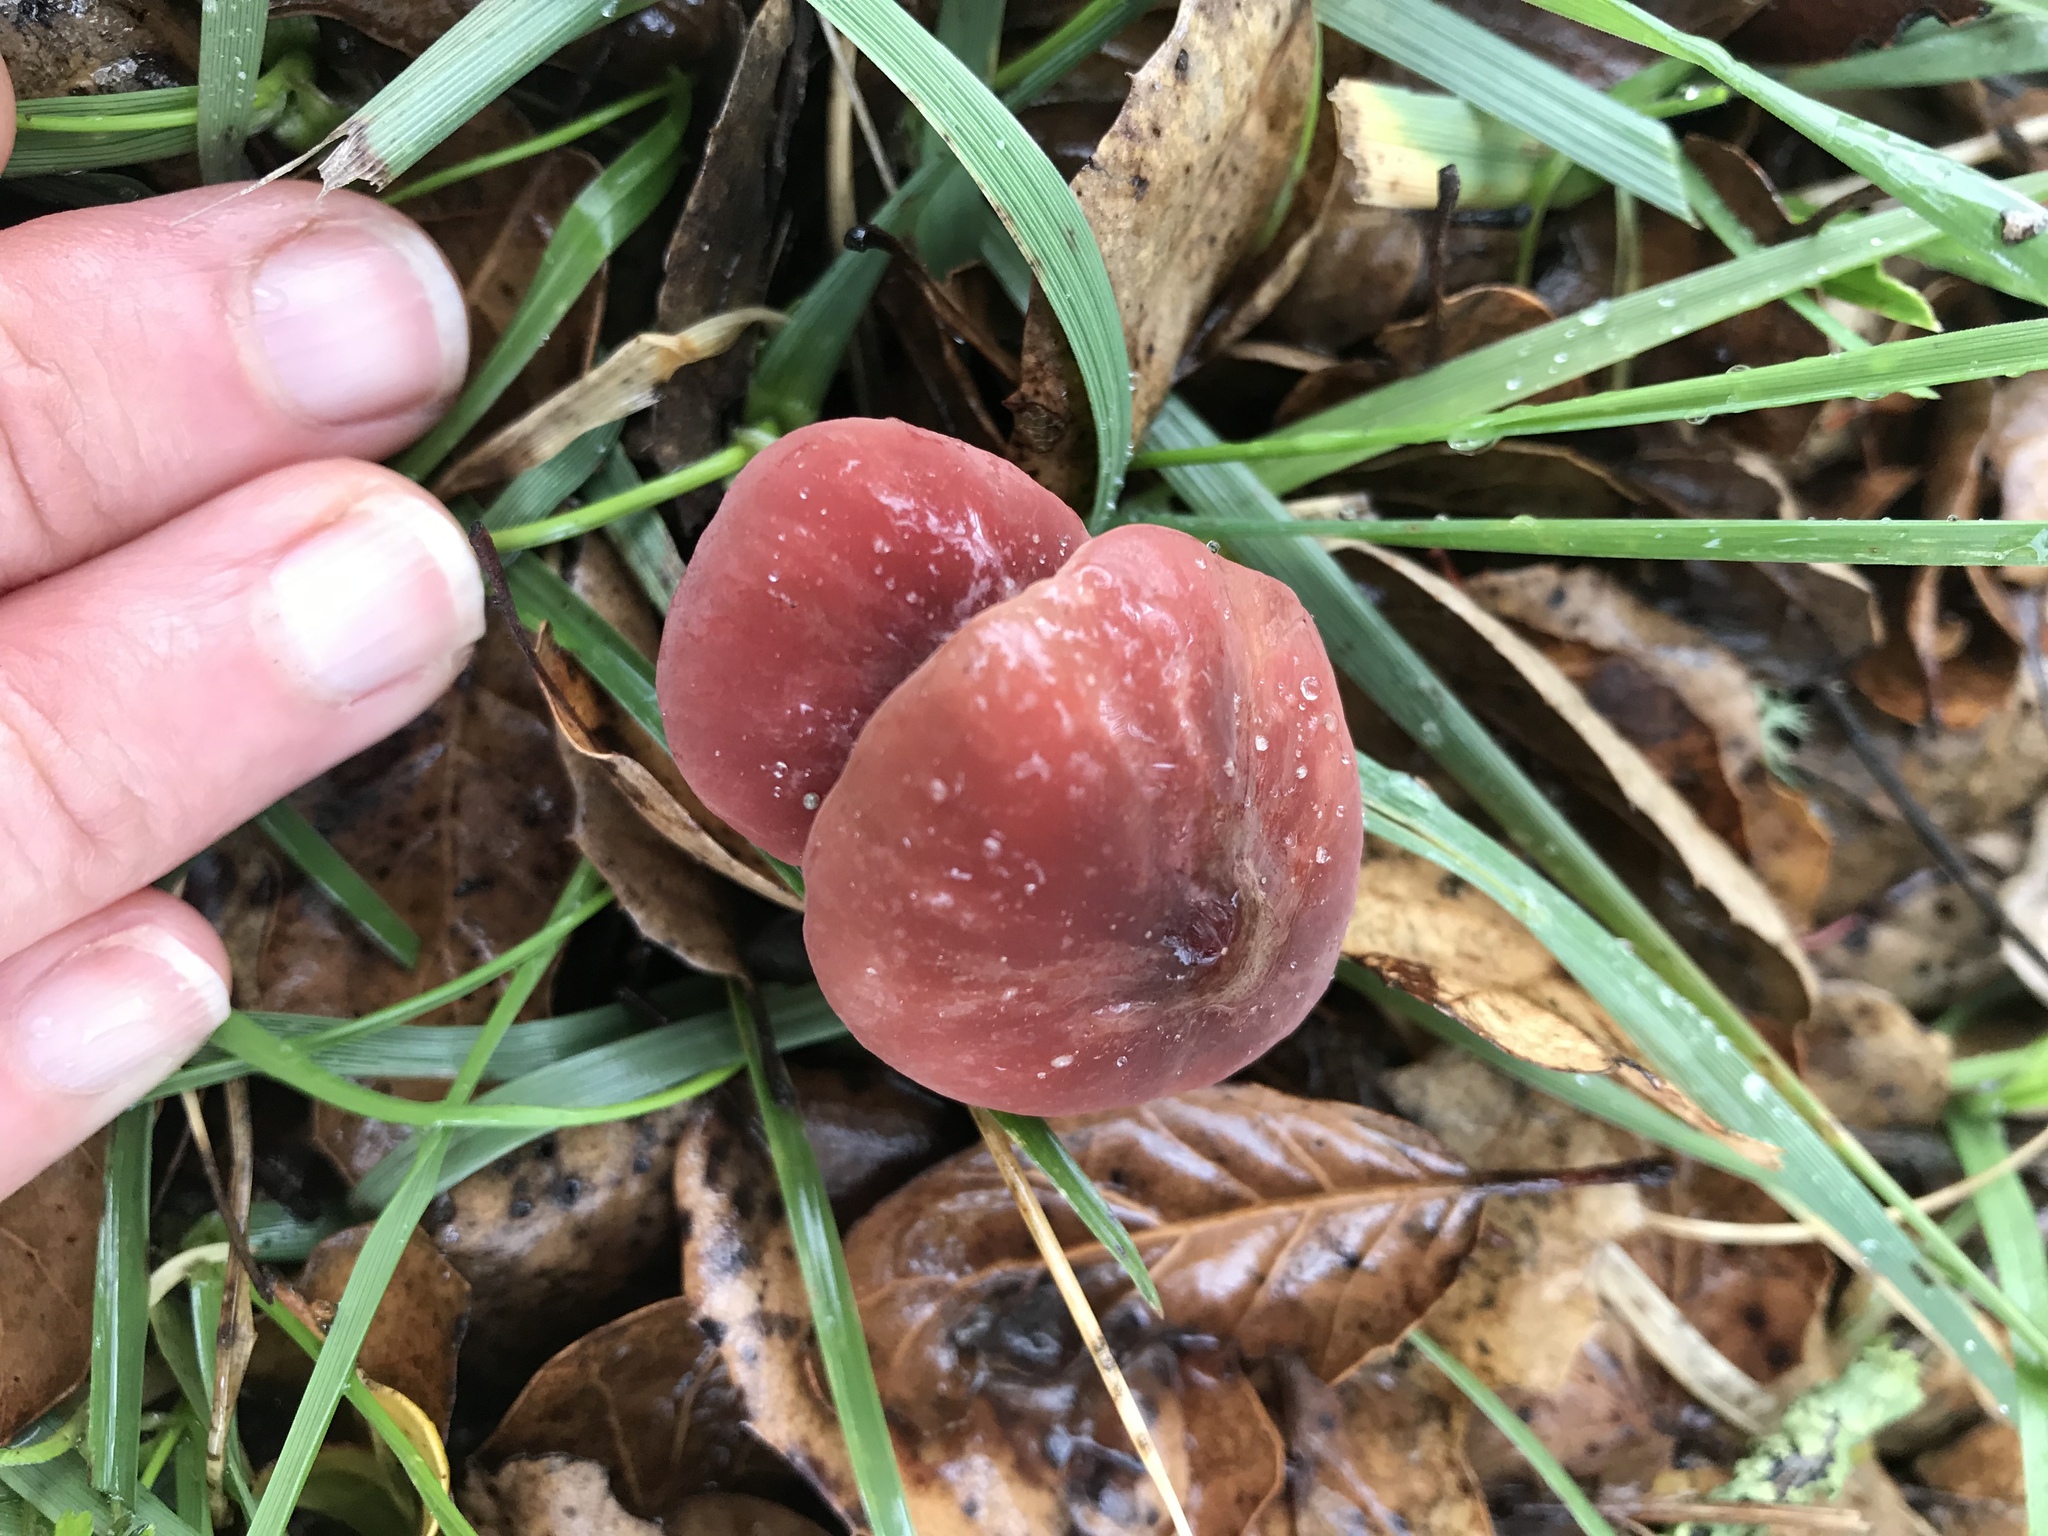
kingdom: Fungi
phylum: Basidiomycota
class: Agaricomycetes
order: Agaricales
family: Marasmiaceae
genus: Marasmius
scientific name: Marasmius plicatulus
